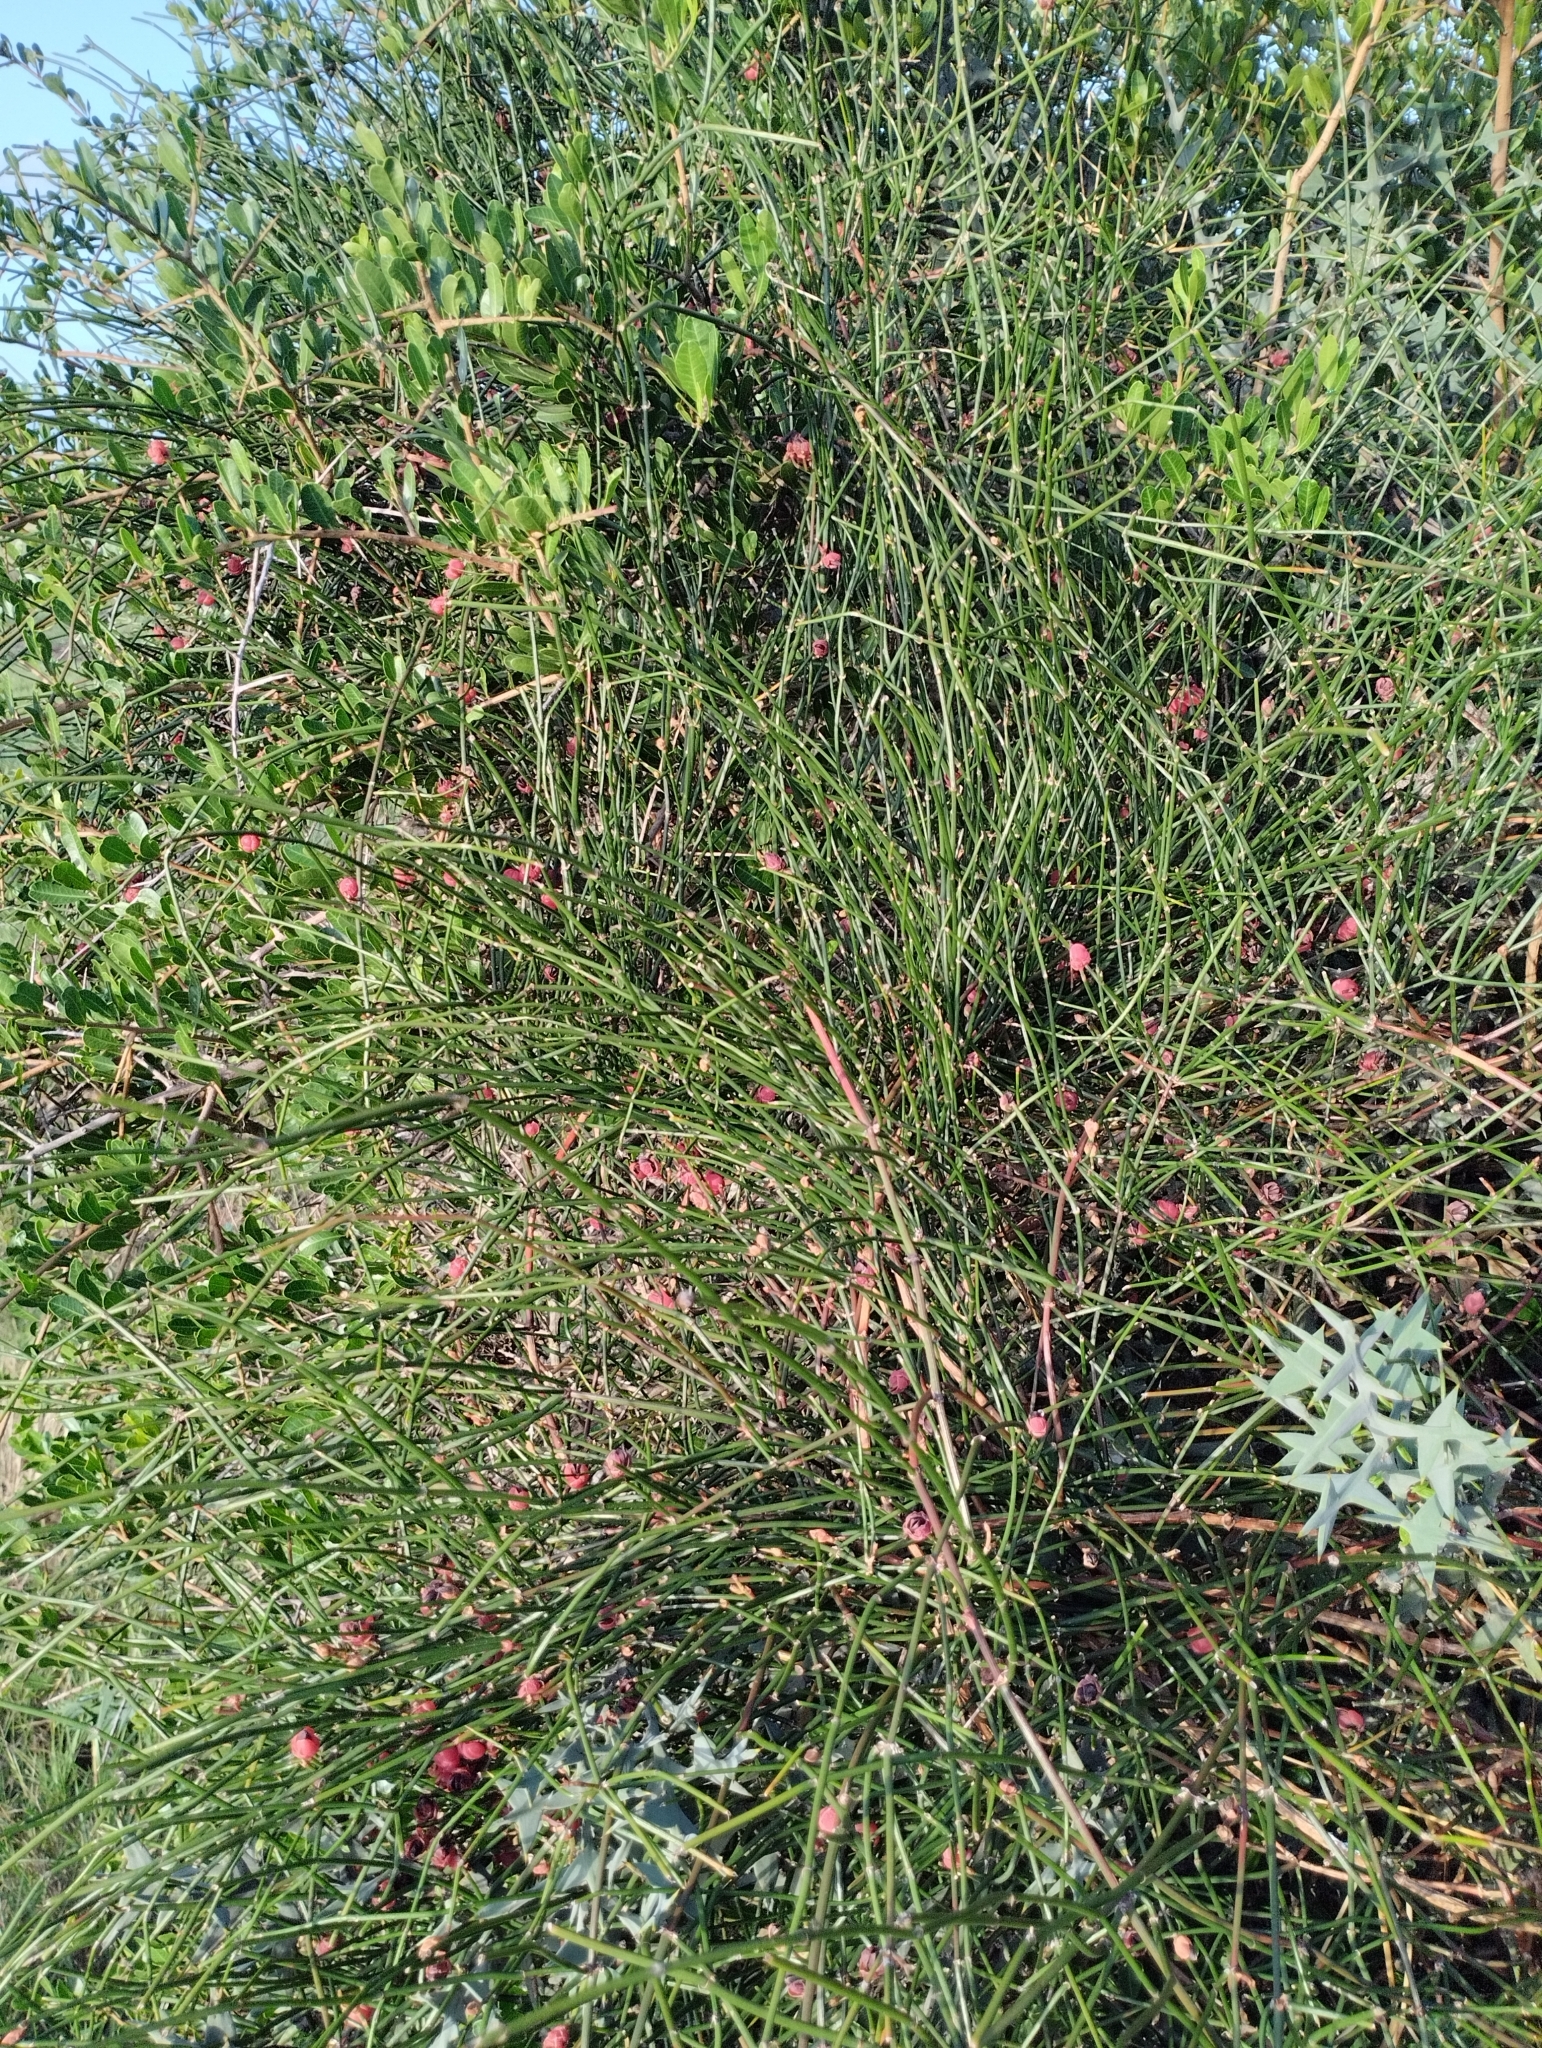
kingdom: Plantae
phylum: Tracheophyta
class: Gnetopsida
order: Ephedrales
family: Ephedraceae
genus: Ephedra
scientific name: Ephedra tweedieana
